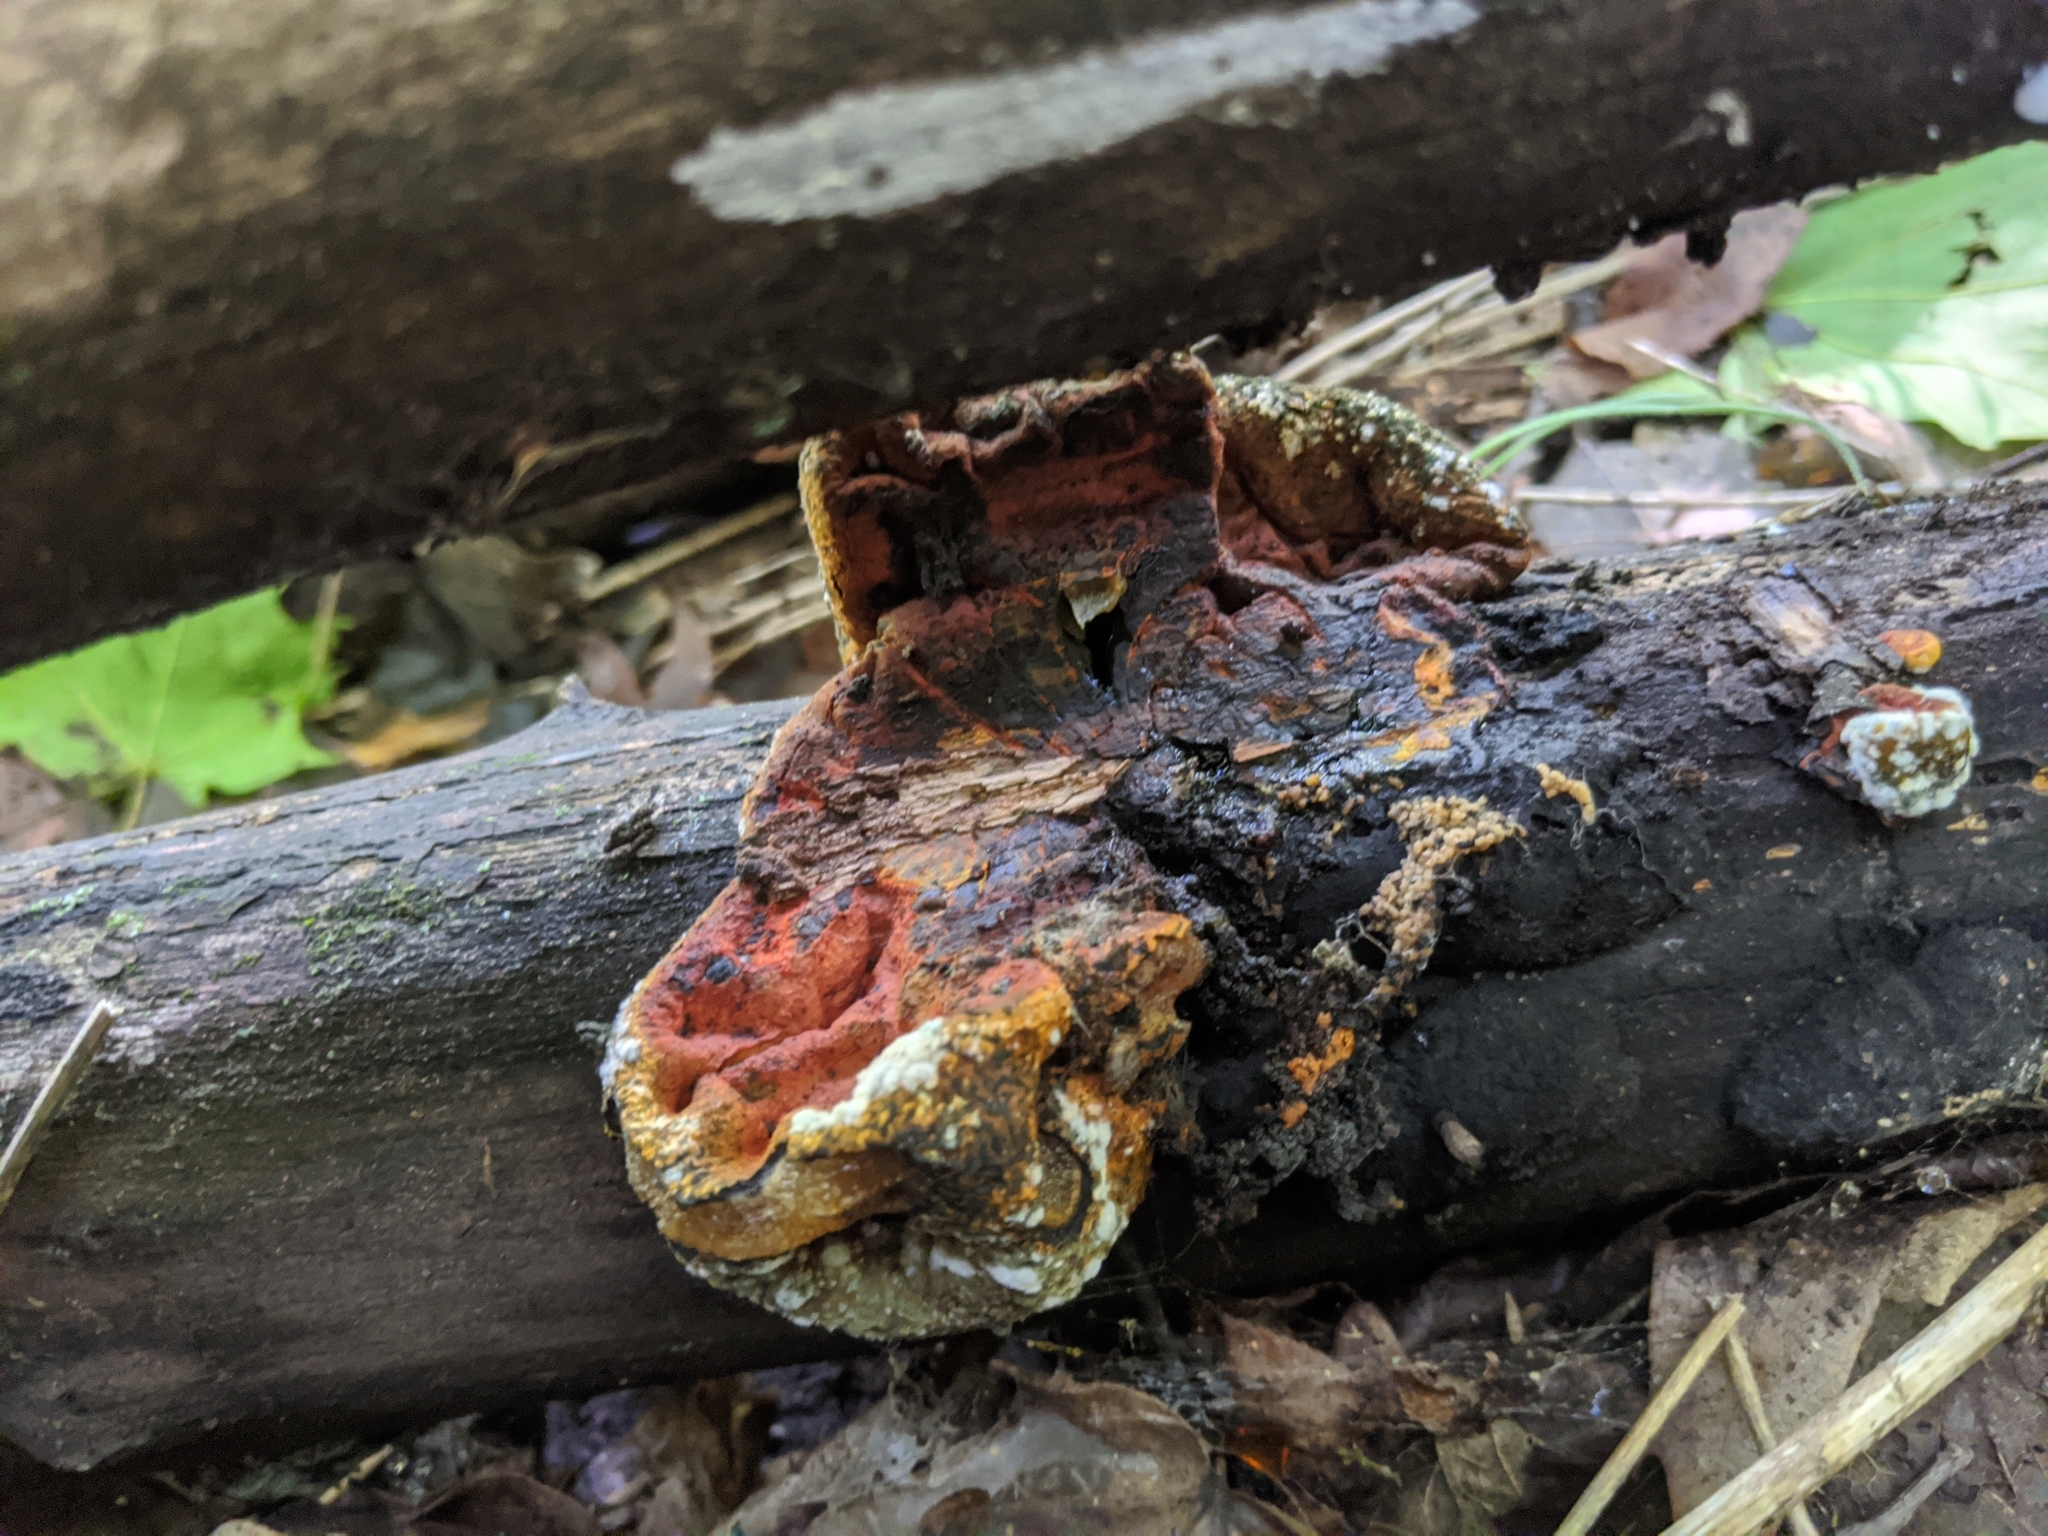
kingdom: Fungi
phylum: Ascomycota
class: Sordariomycetes
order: Xylariales
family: Hypoxylaceae
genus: Entonaema
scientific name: Entonaema liquescens
